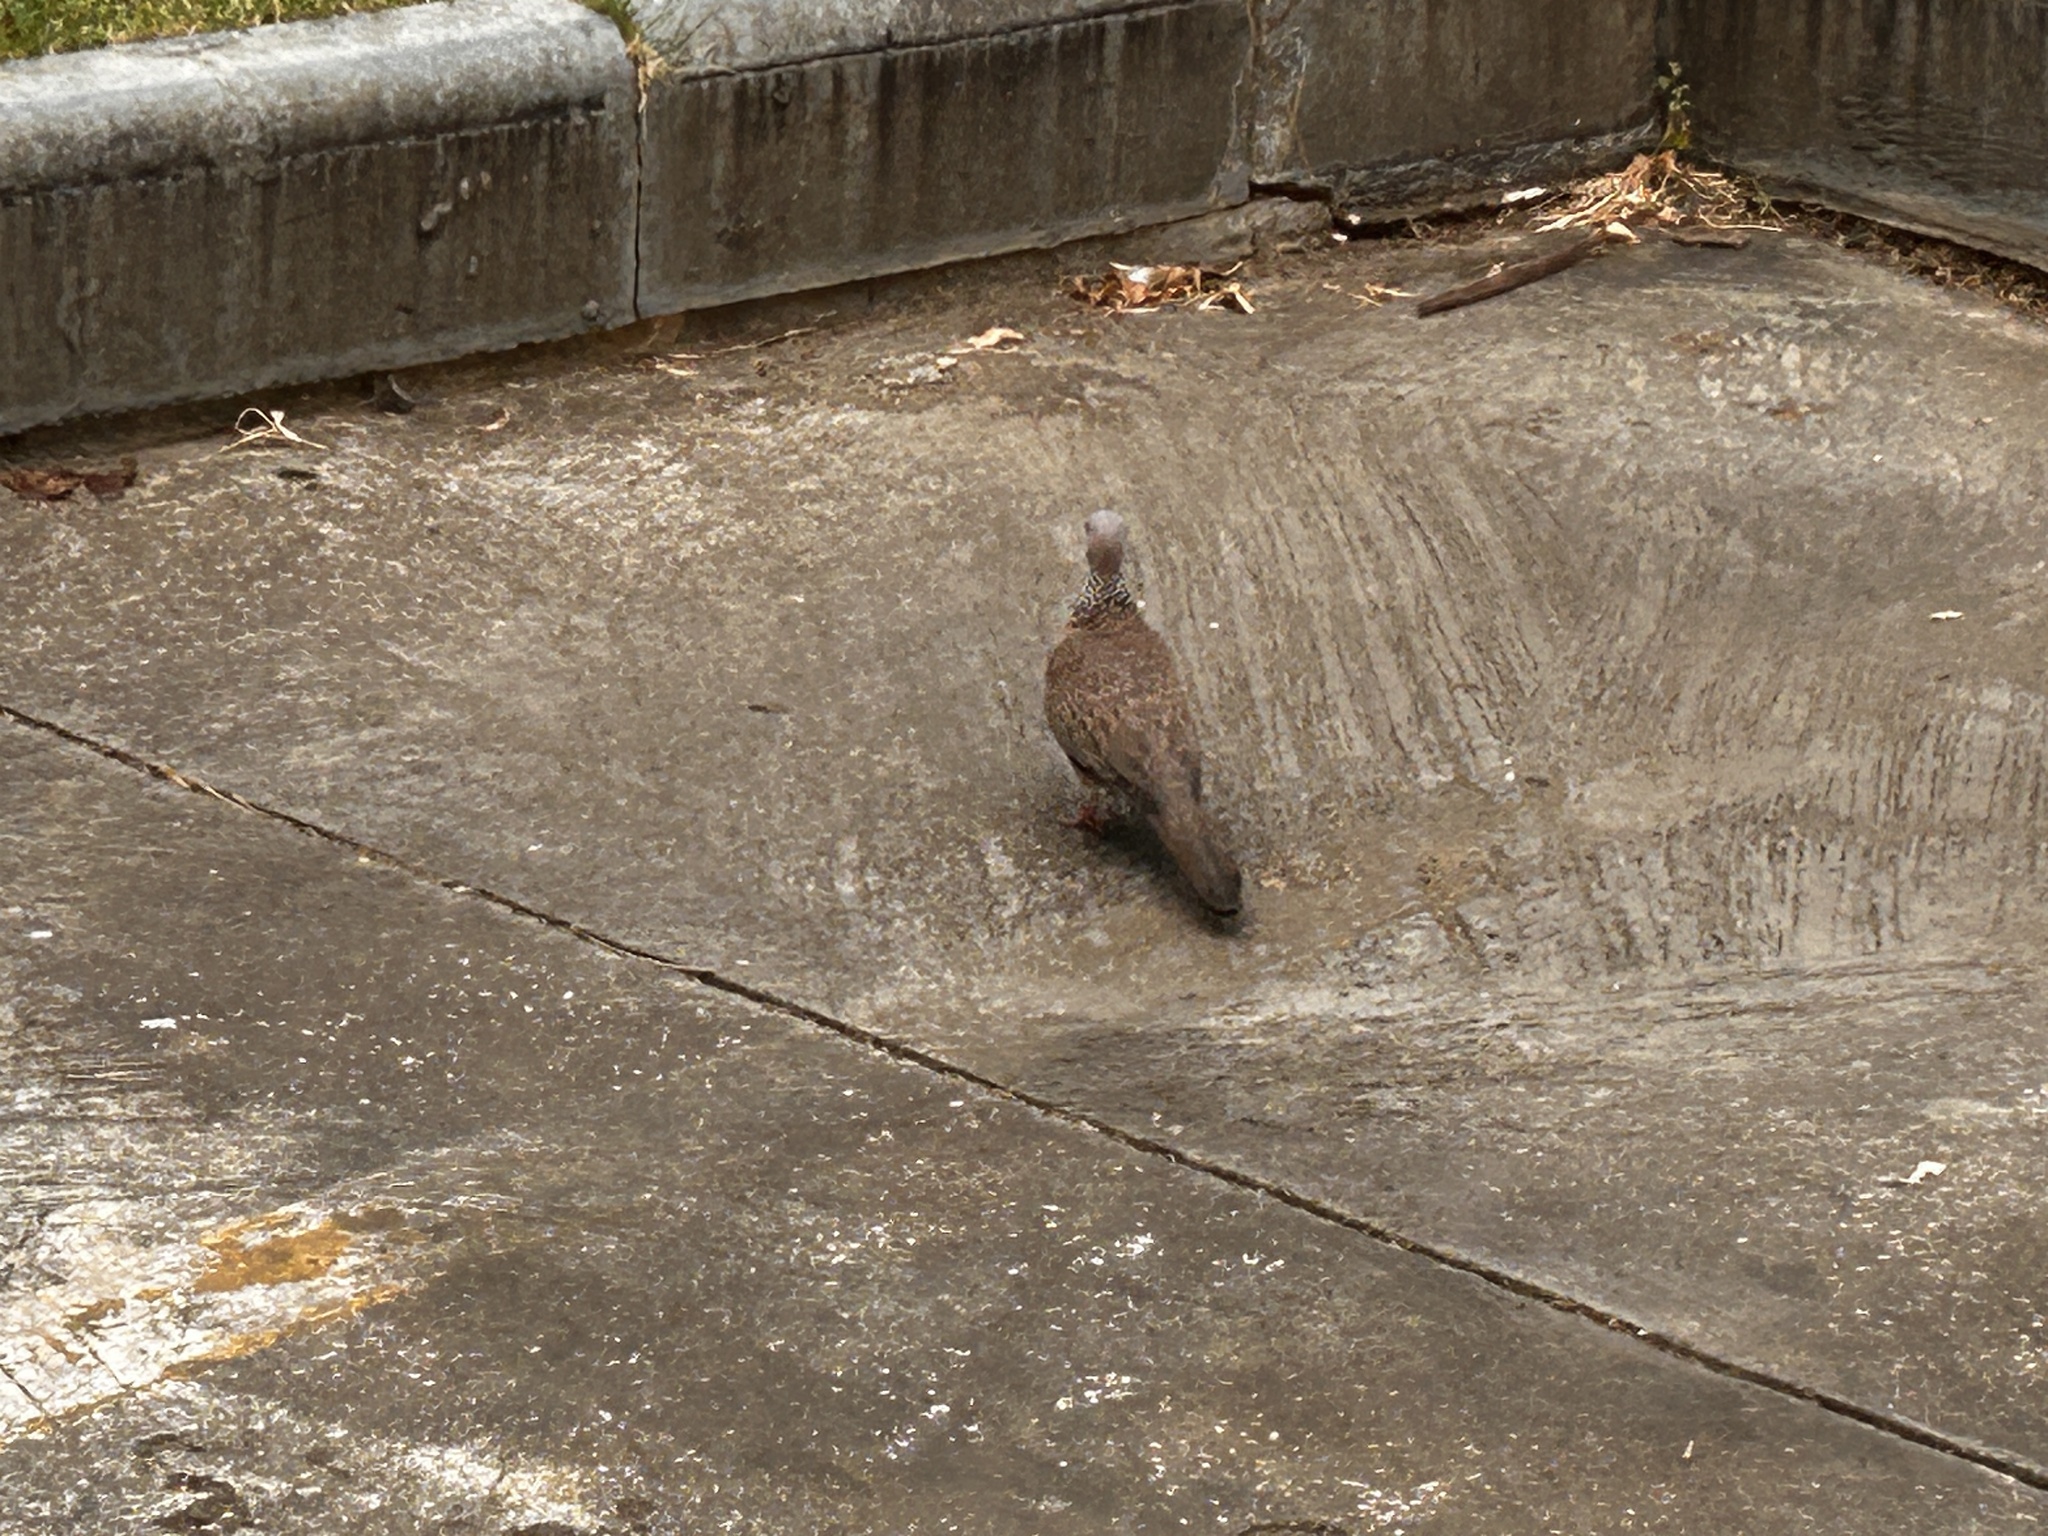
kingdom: Animalia
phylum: Chordata
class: Aves
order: Columbiformes
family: Columbidae
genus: Spilopelia
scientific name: Spilopelia chinensis
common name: Spotted dove
